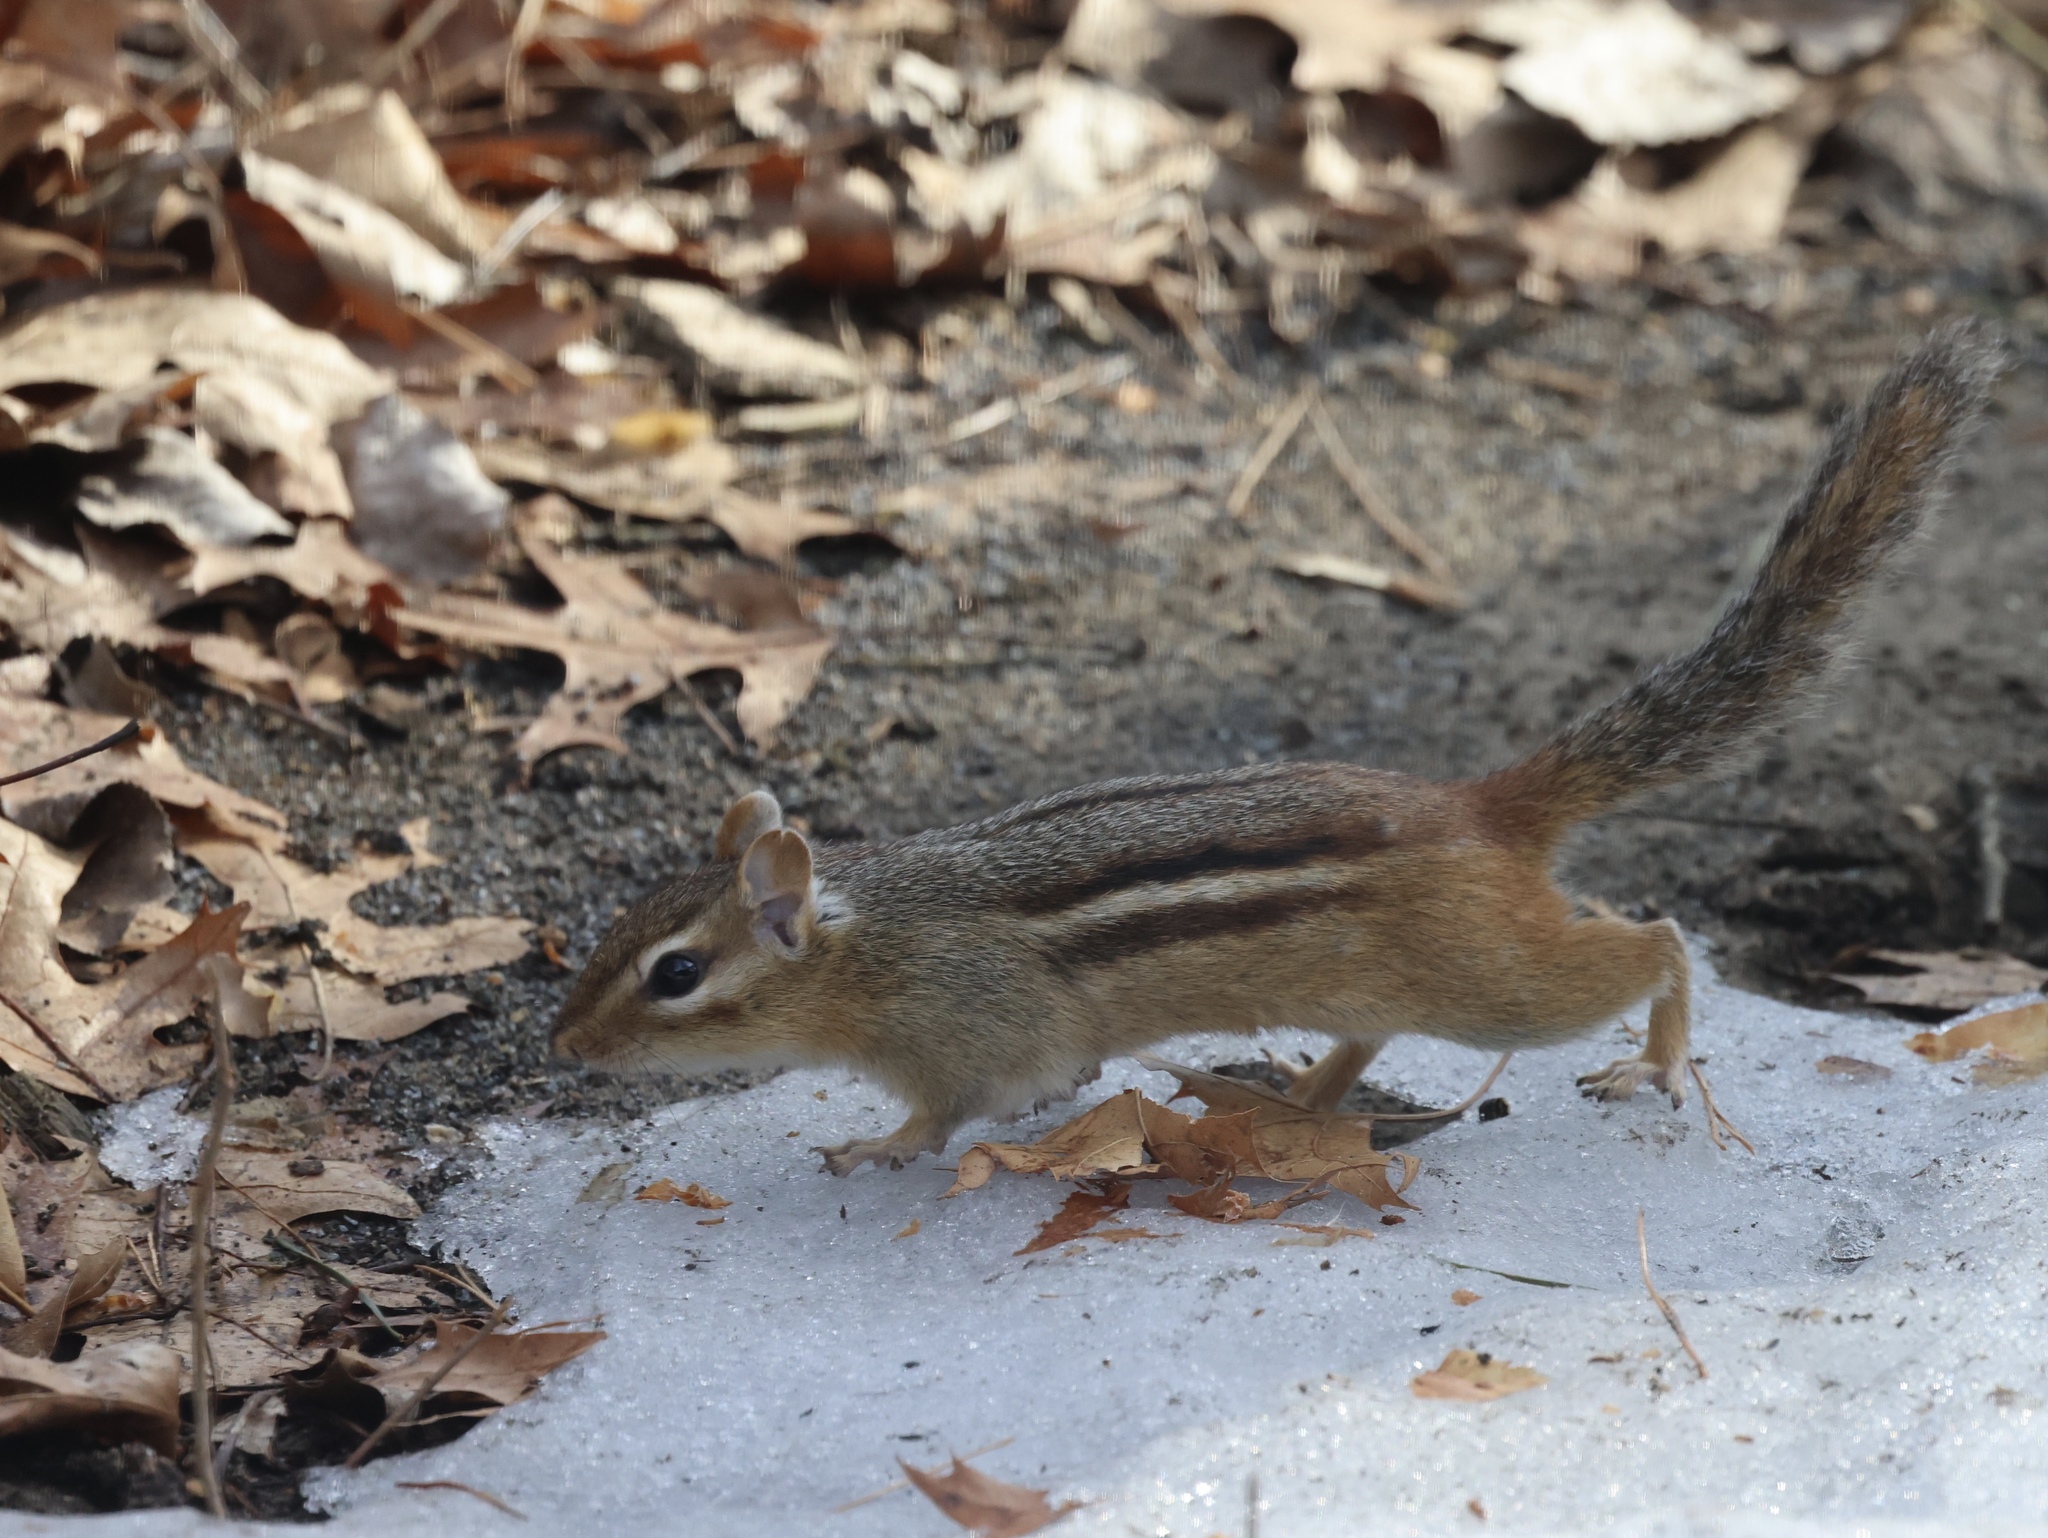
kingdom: Animalia
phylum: Chordata
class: Mammalia
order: Rodentia
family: Sciuridae
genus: Tamias
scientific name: Tamias striatus
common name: Eastern chipmunk
